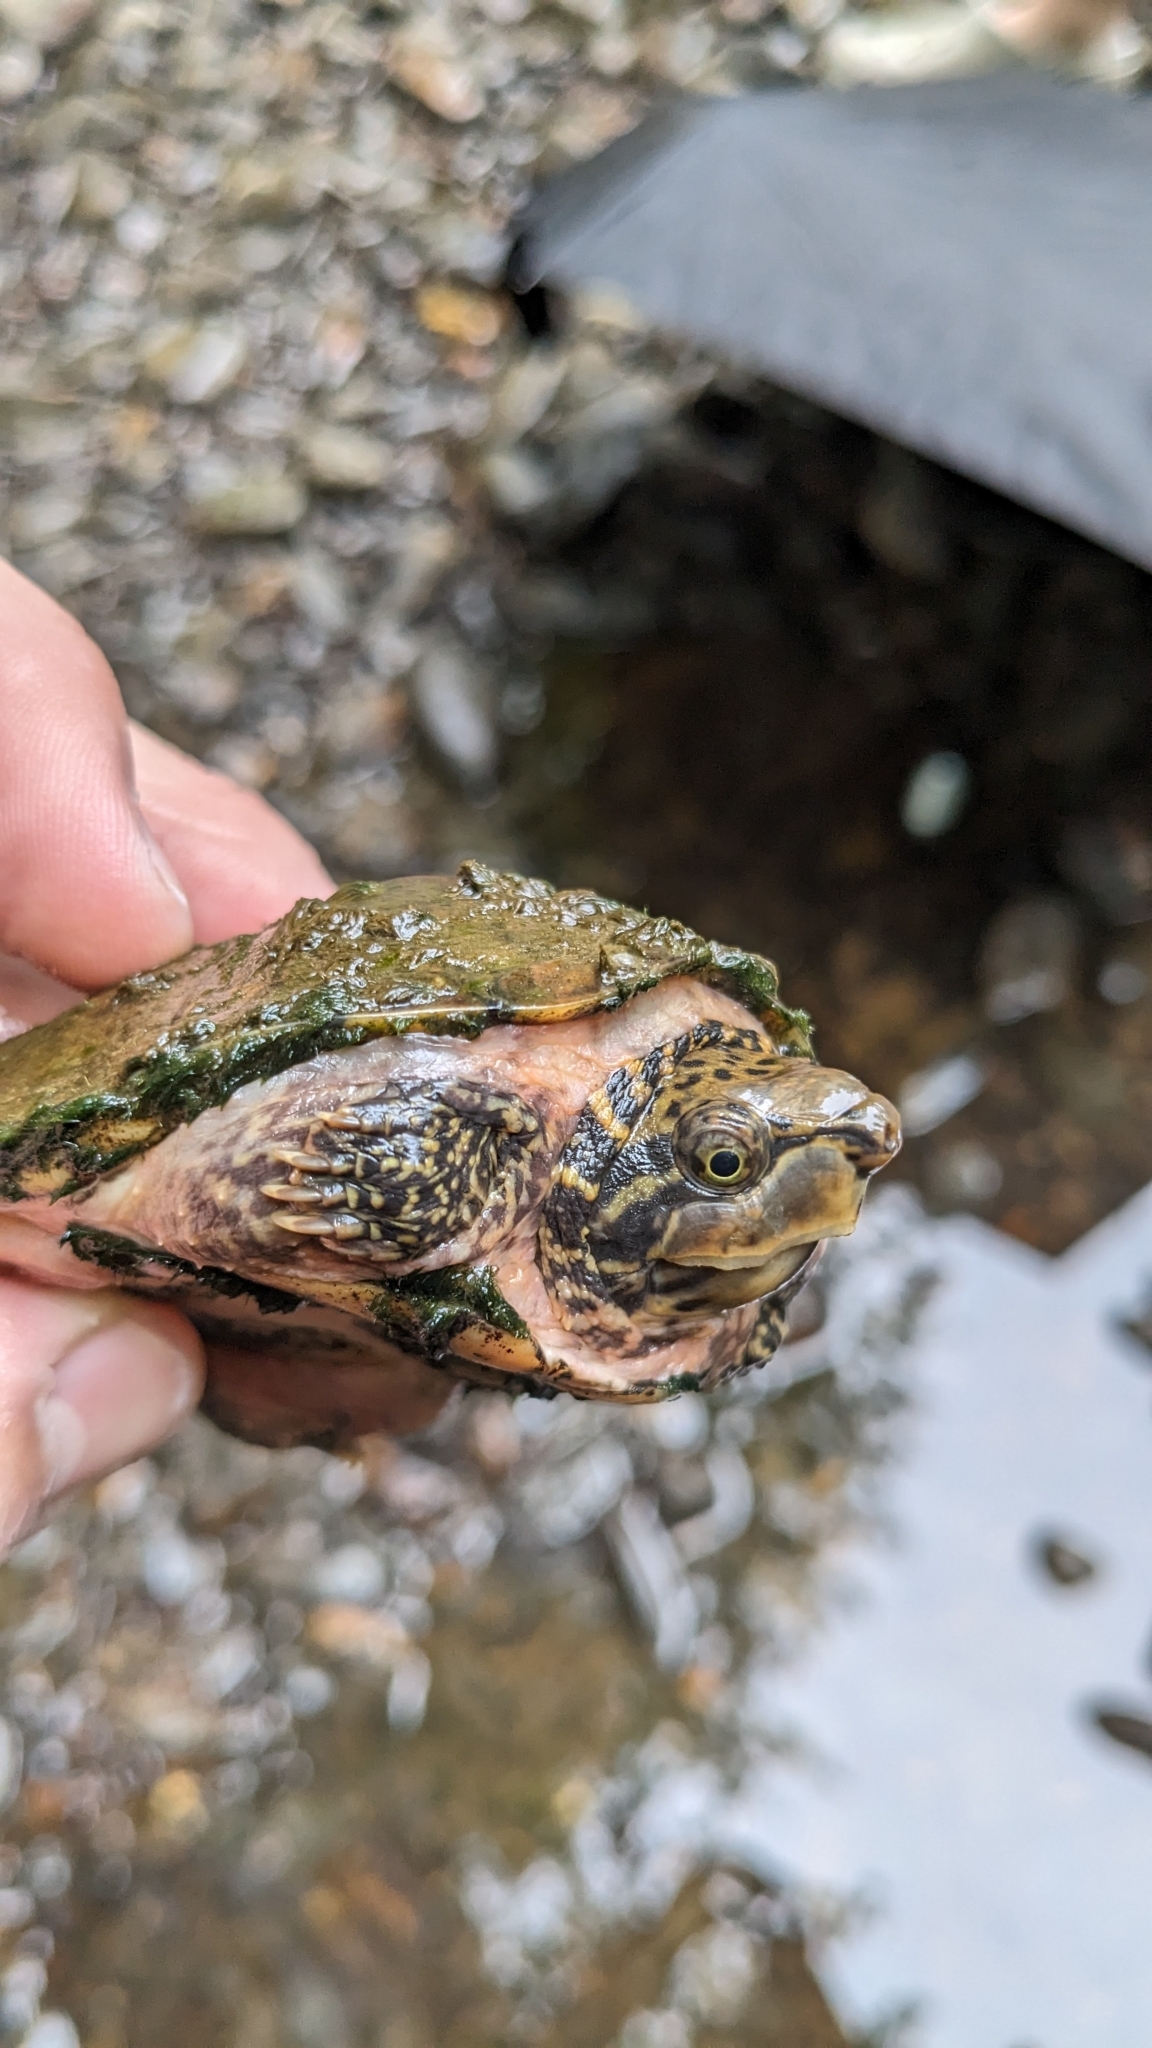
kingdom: Animalia
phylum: Chordata
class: Testudines
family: Kinosternidae
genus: Sternotherus
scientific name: Sternotherus peltifer
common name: Stripeneck musk turtle
